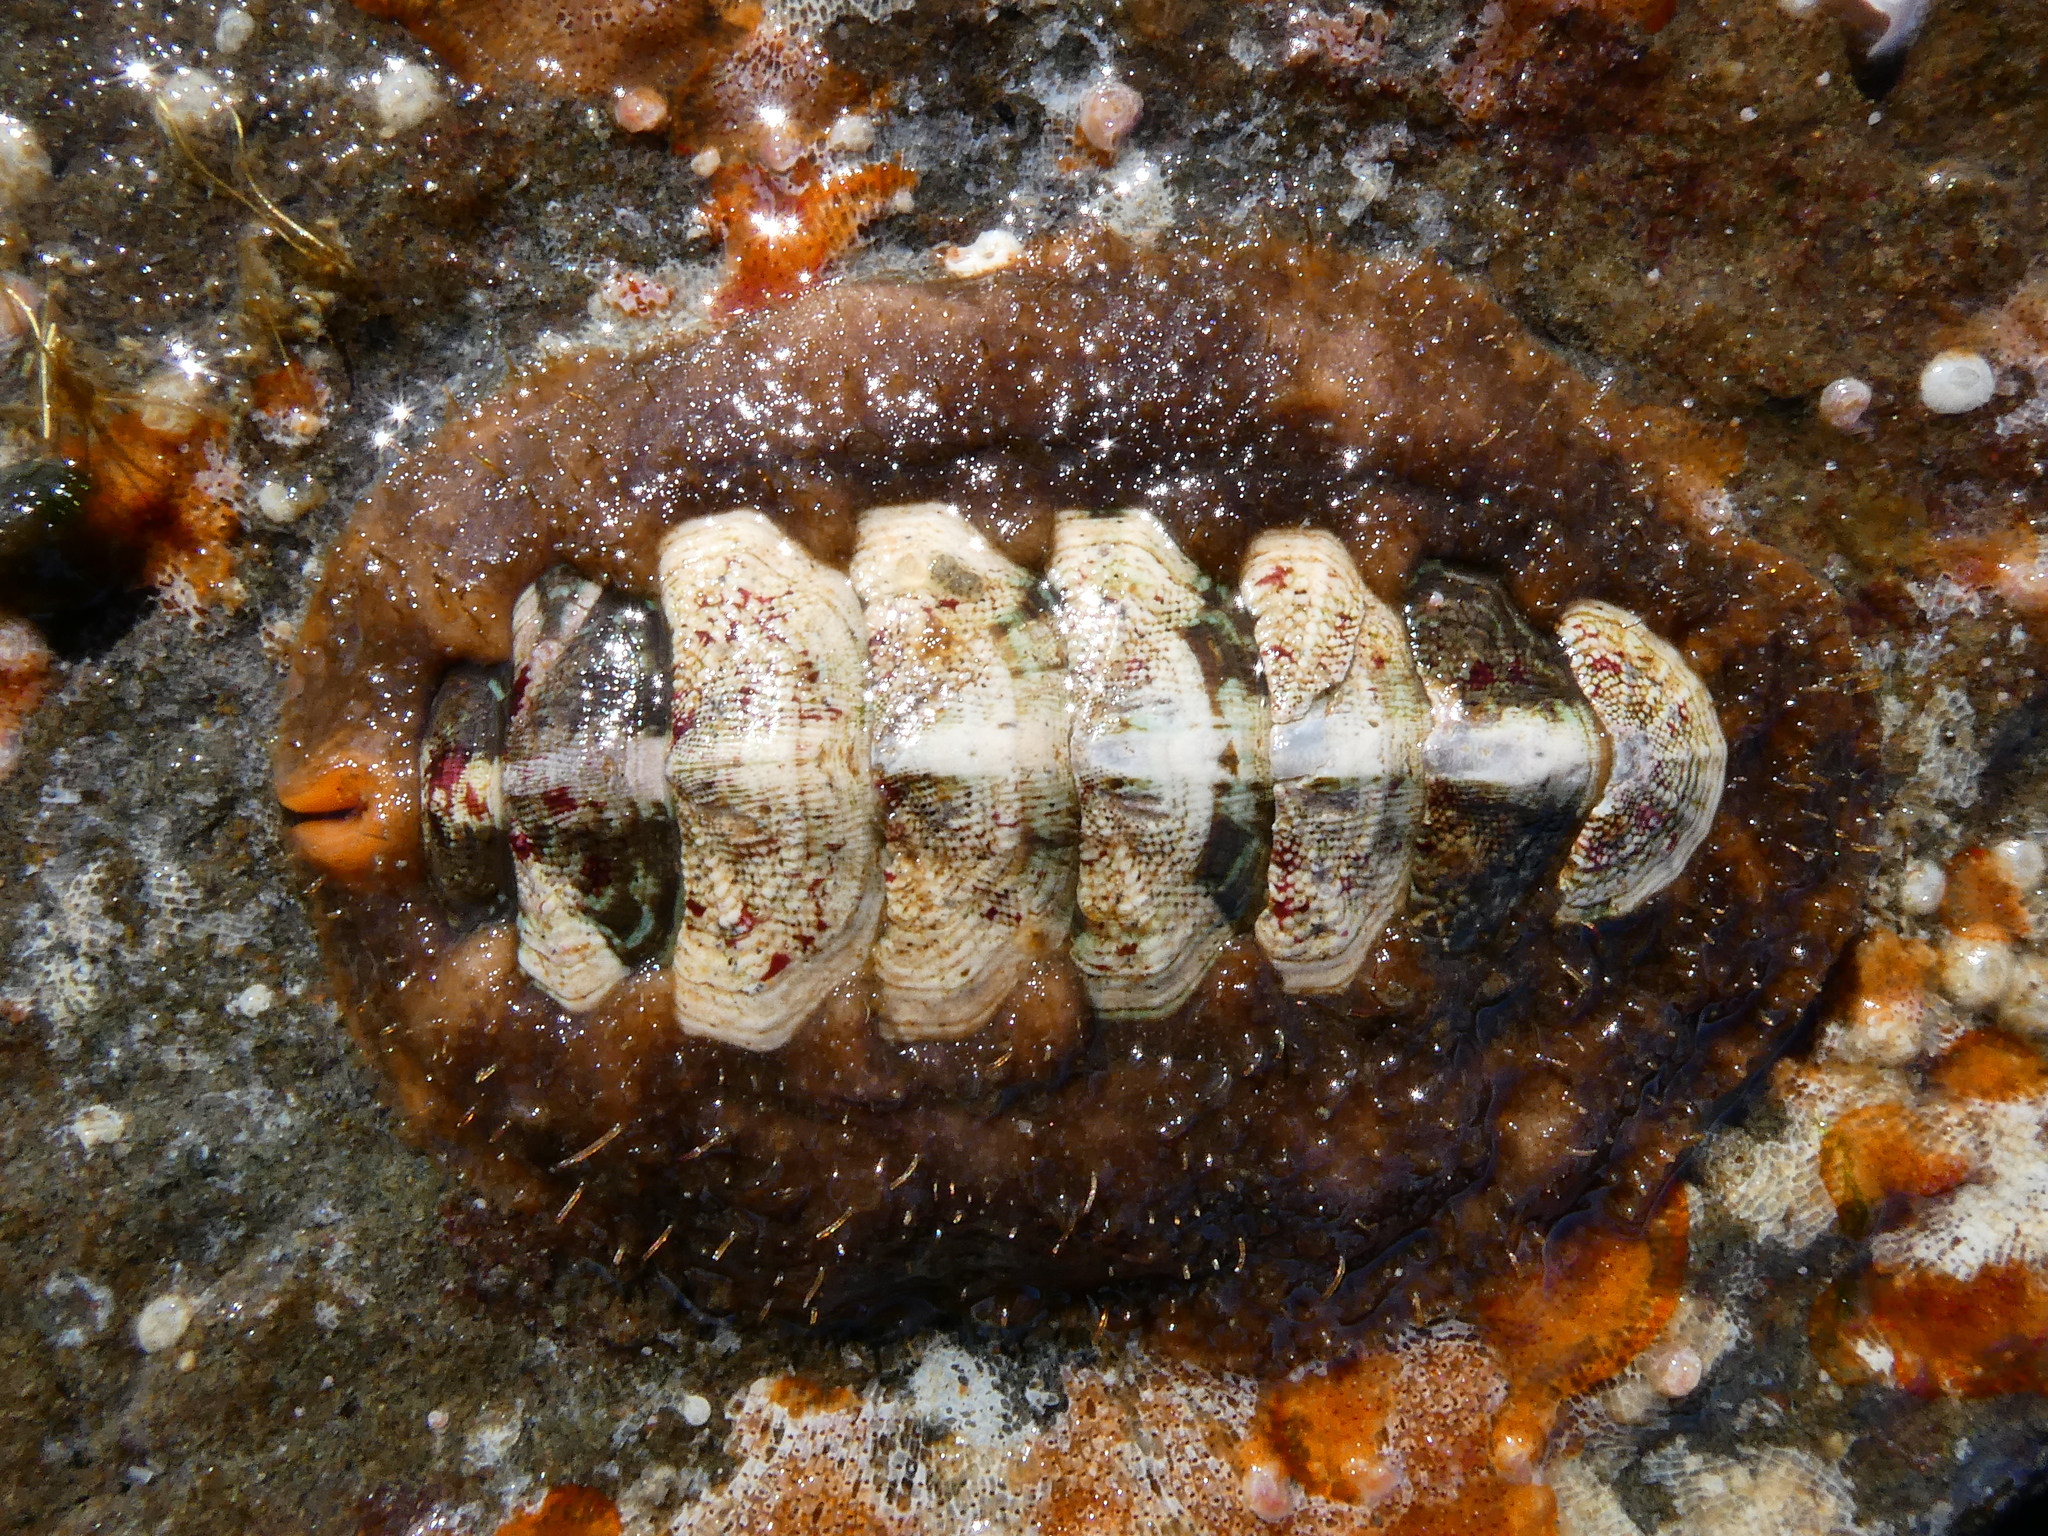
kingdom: Animalia
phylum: Mollusca
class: Polyplacophora
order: Chitonida
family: Mopaliidae
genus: Mopalia
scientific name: Mopalia ciliata
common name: Hairy chiton
